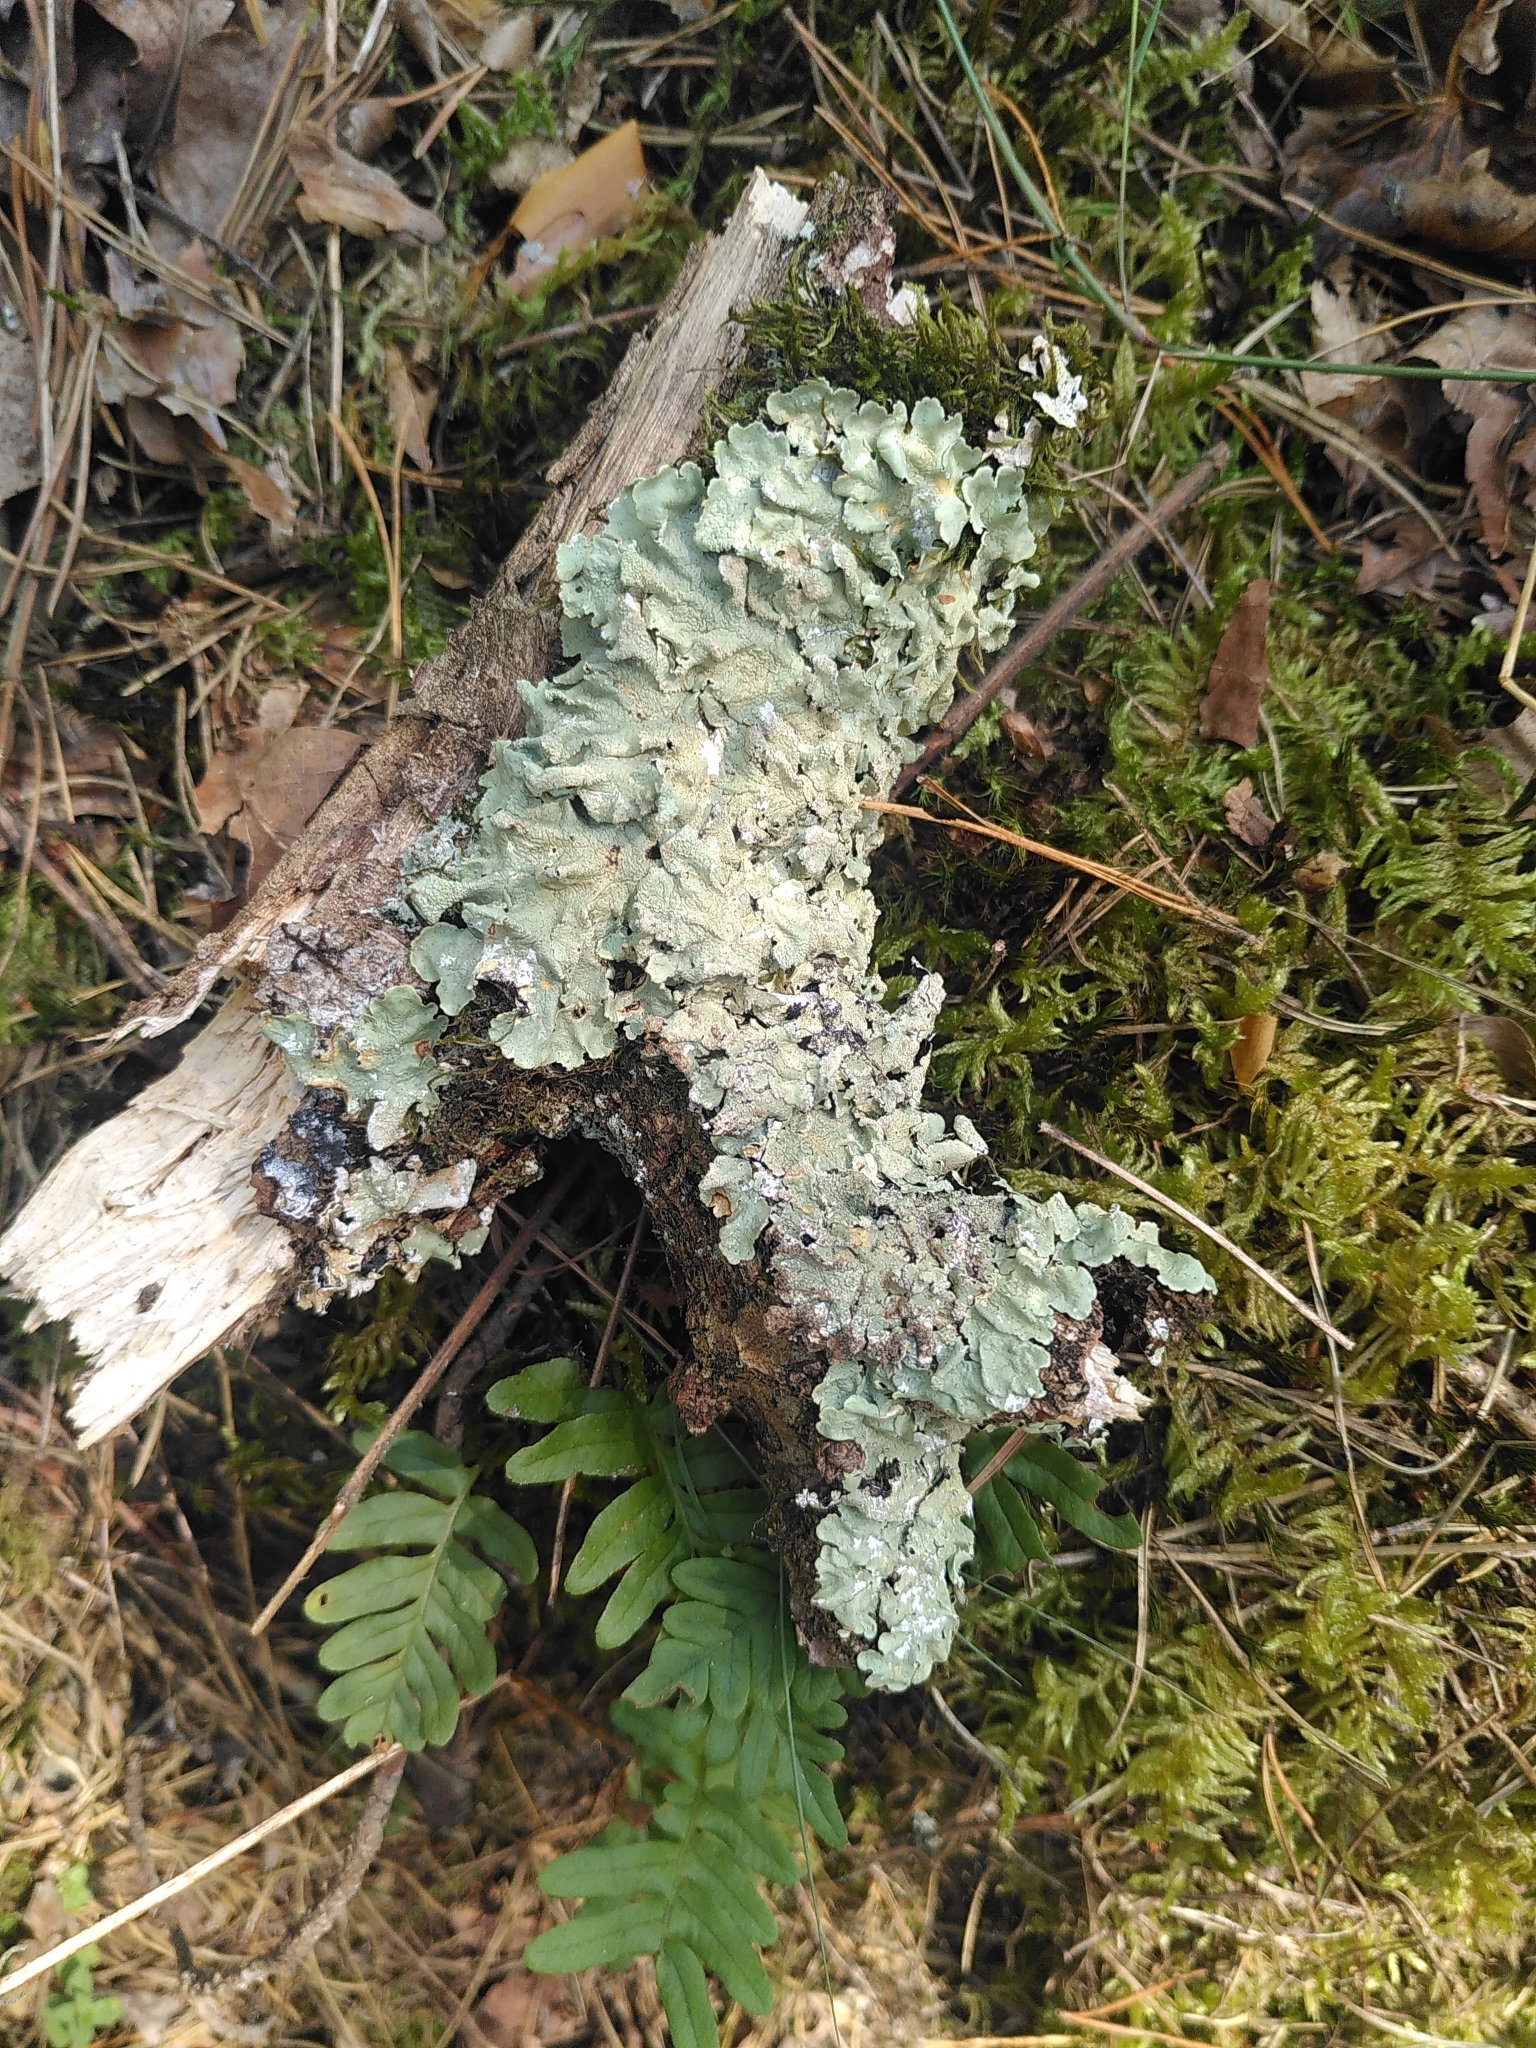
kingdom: Fungi
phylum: Ascomycota
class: Lecanoromycetes
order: Lecanorales
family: Parmeliaceae
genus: Flavoparmelia
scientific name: Flavoparmelia caperata
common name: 40-mile per hour lichen
